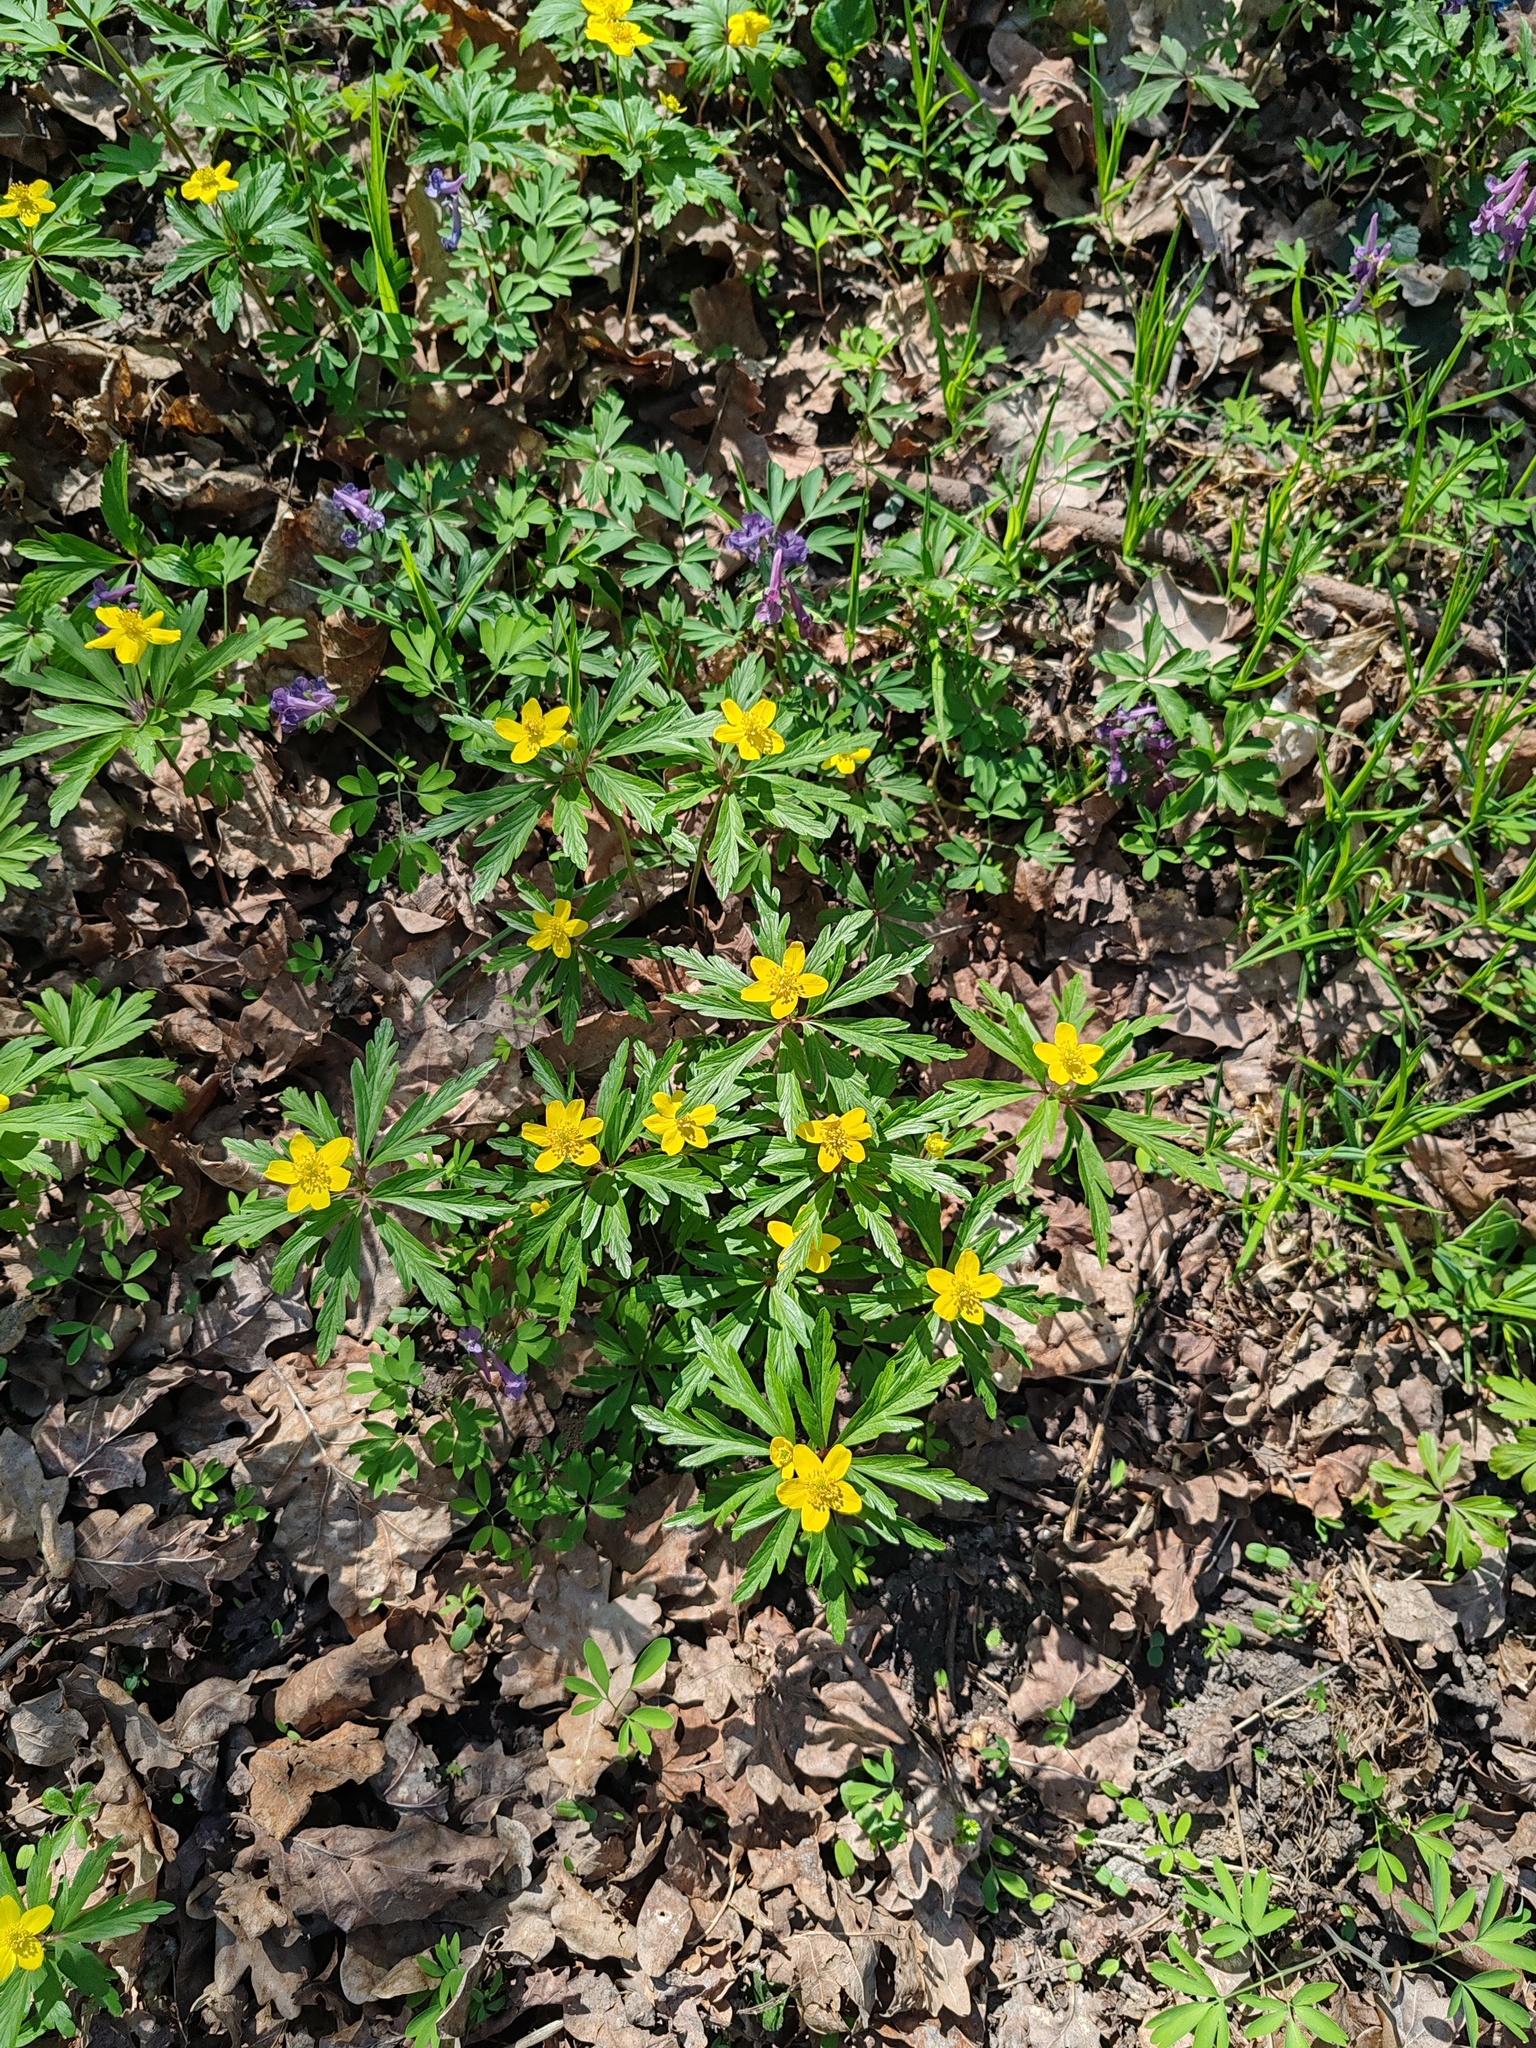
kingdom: Plantae
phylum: Tracheophyta
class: Magnoliopsida
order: Ranunculales
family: Ranunculaceae
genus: Anemone
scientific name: Anemone ranunculoides
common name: Yellow anemone
